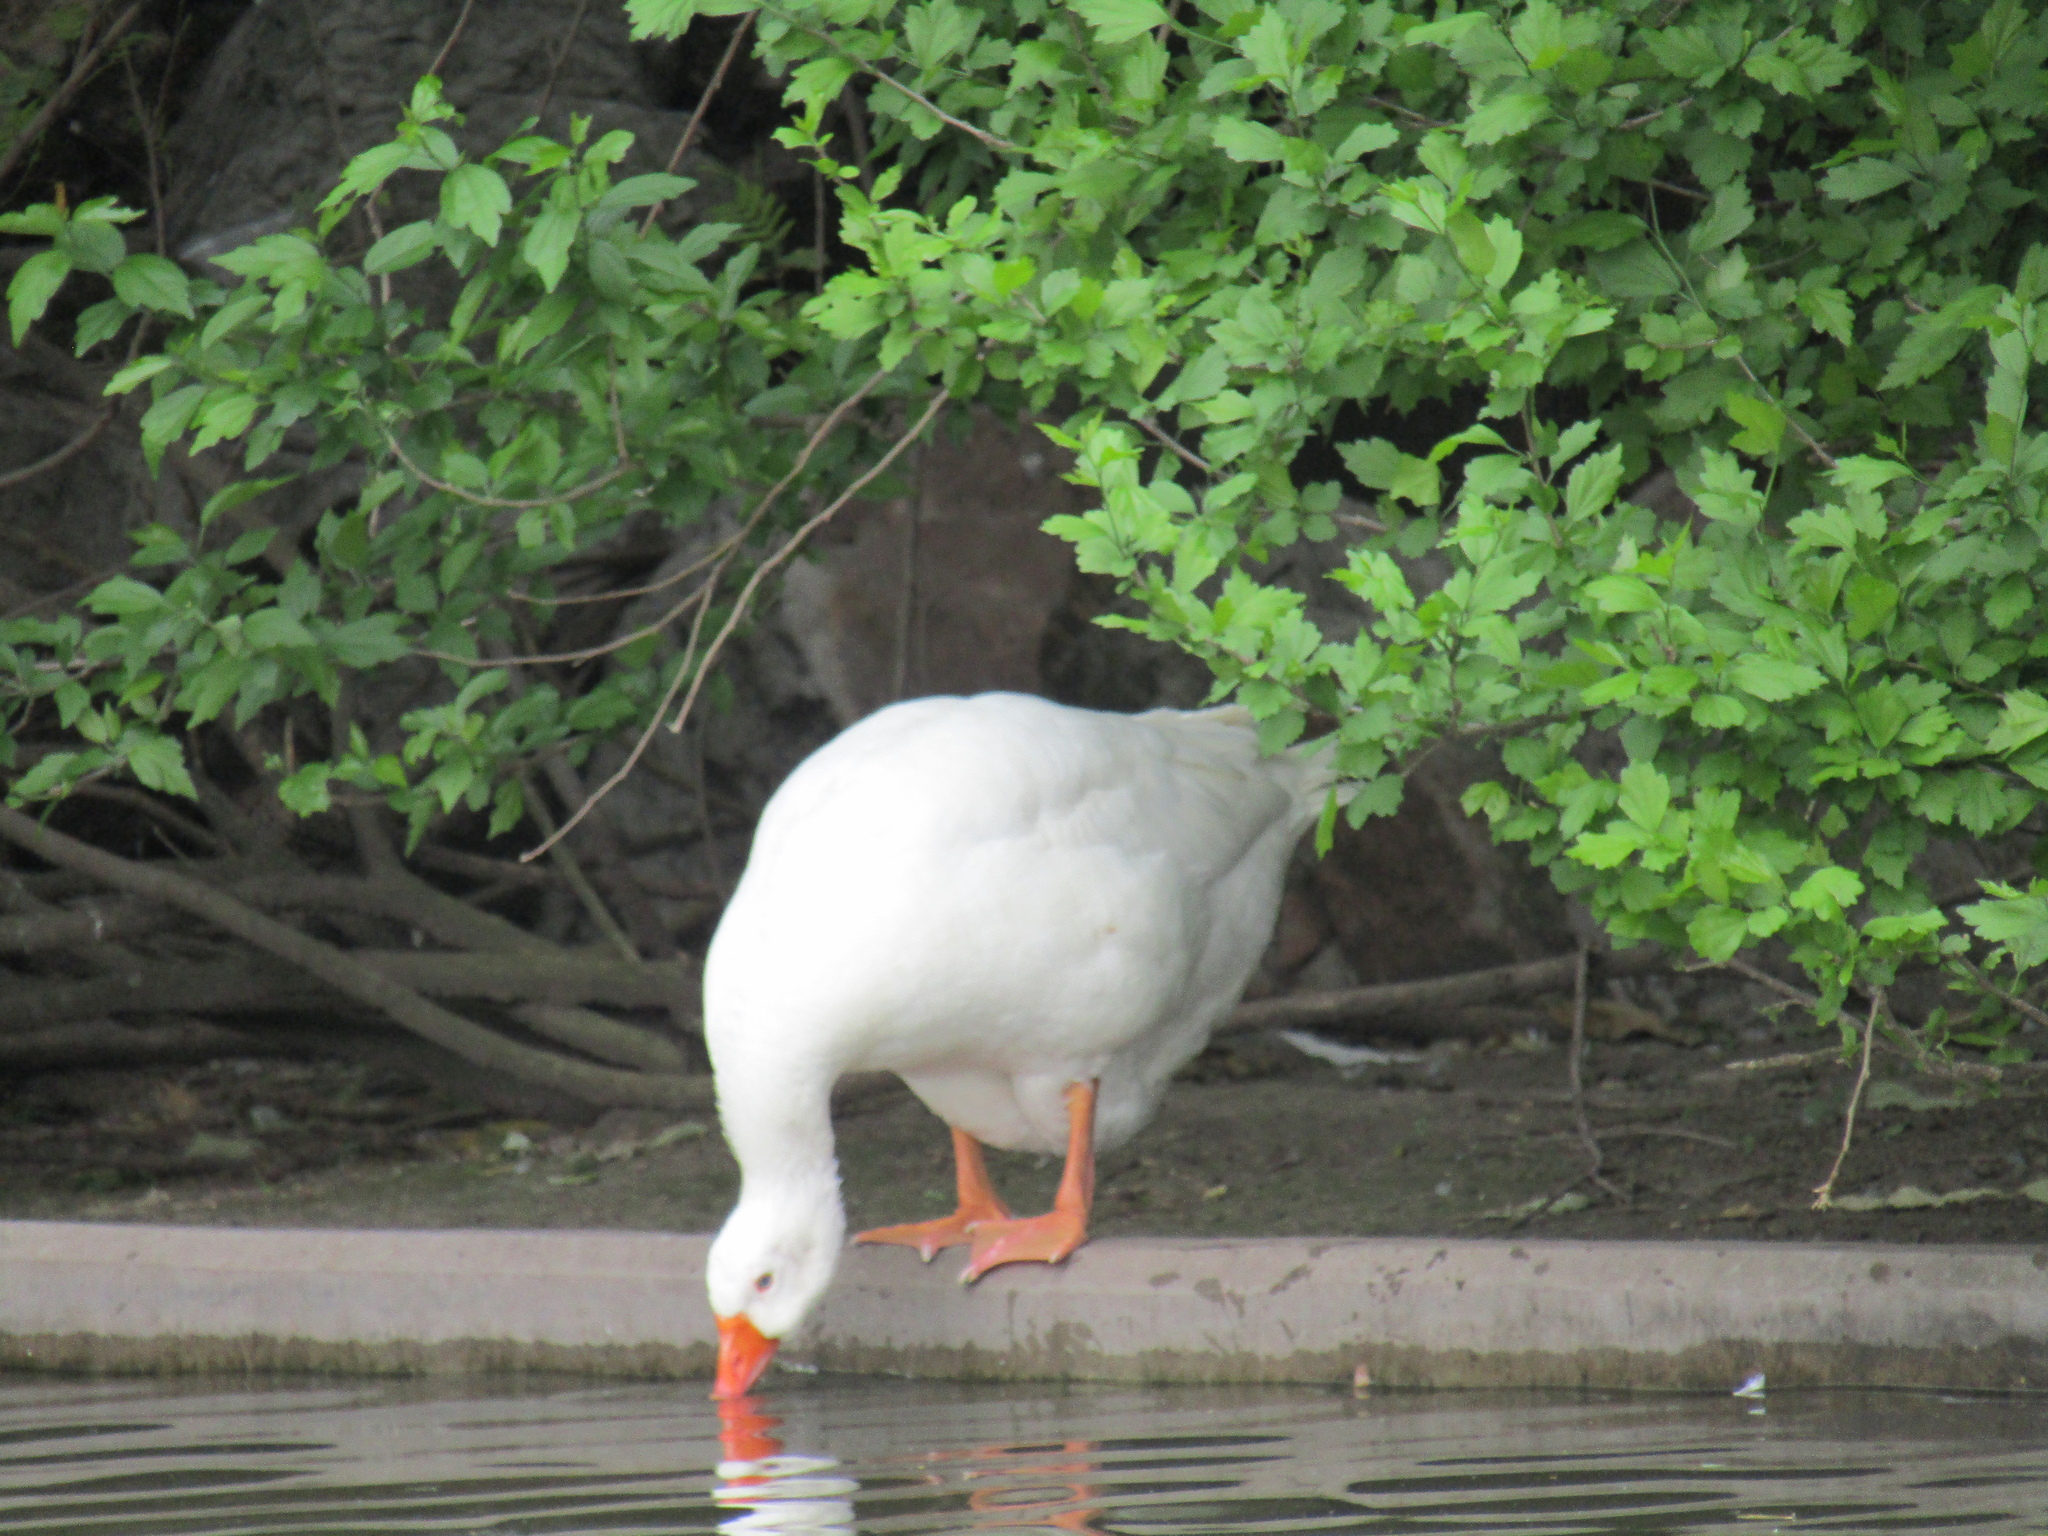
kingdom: Animalia
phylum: Chordata
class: Aves
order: Anseriformes
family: Anatidae
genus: Anser
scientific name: Anser anser
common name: Greylag goose
